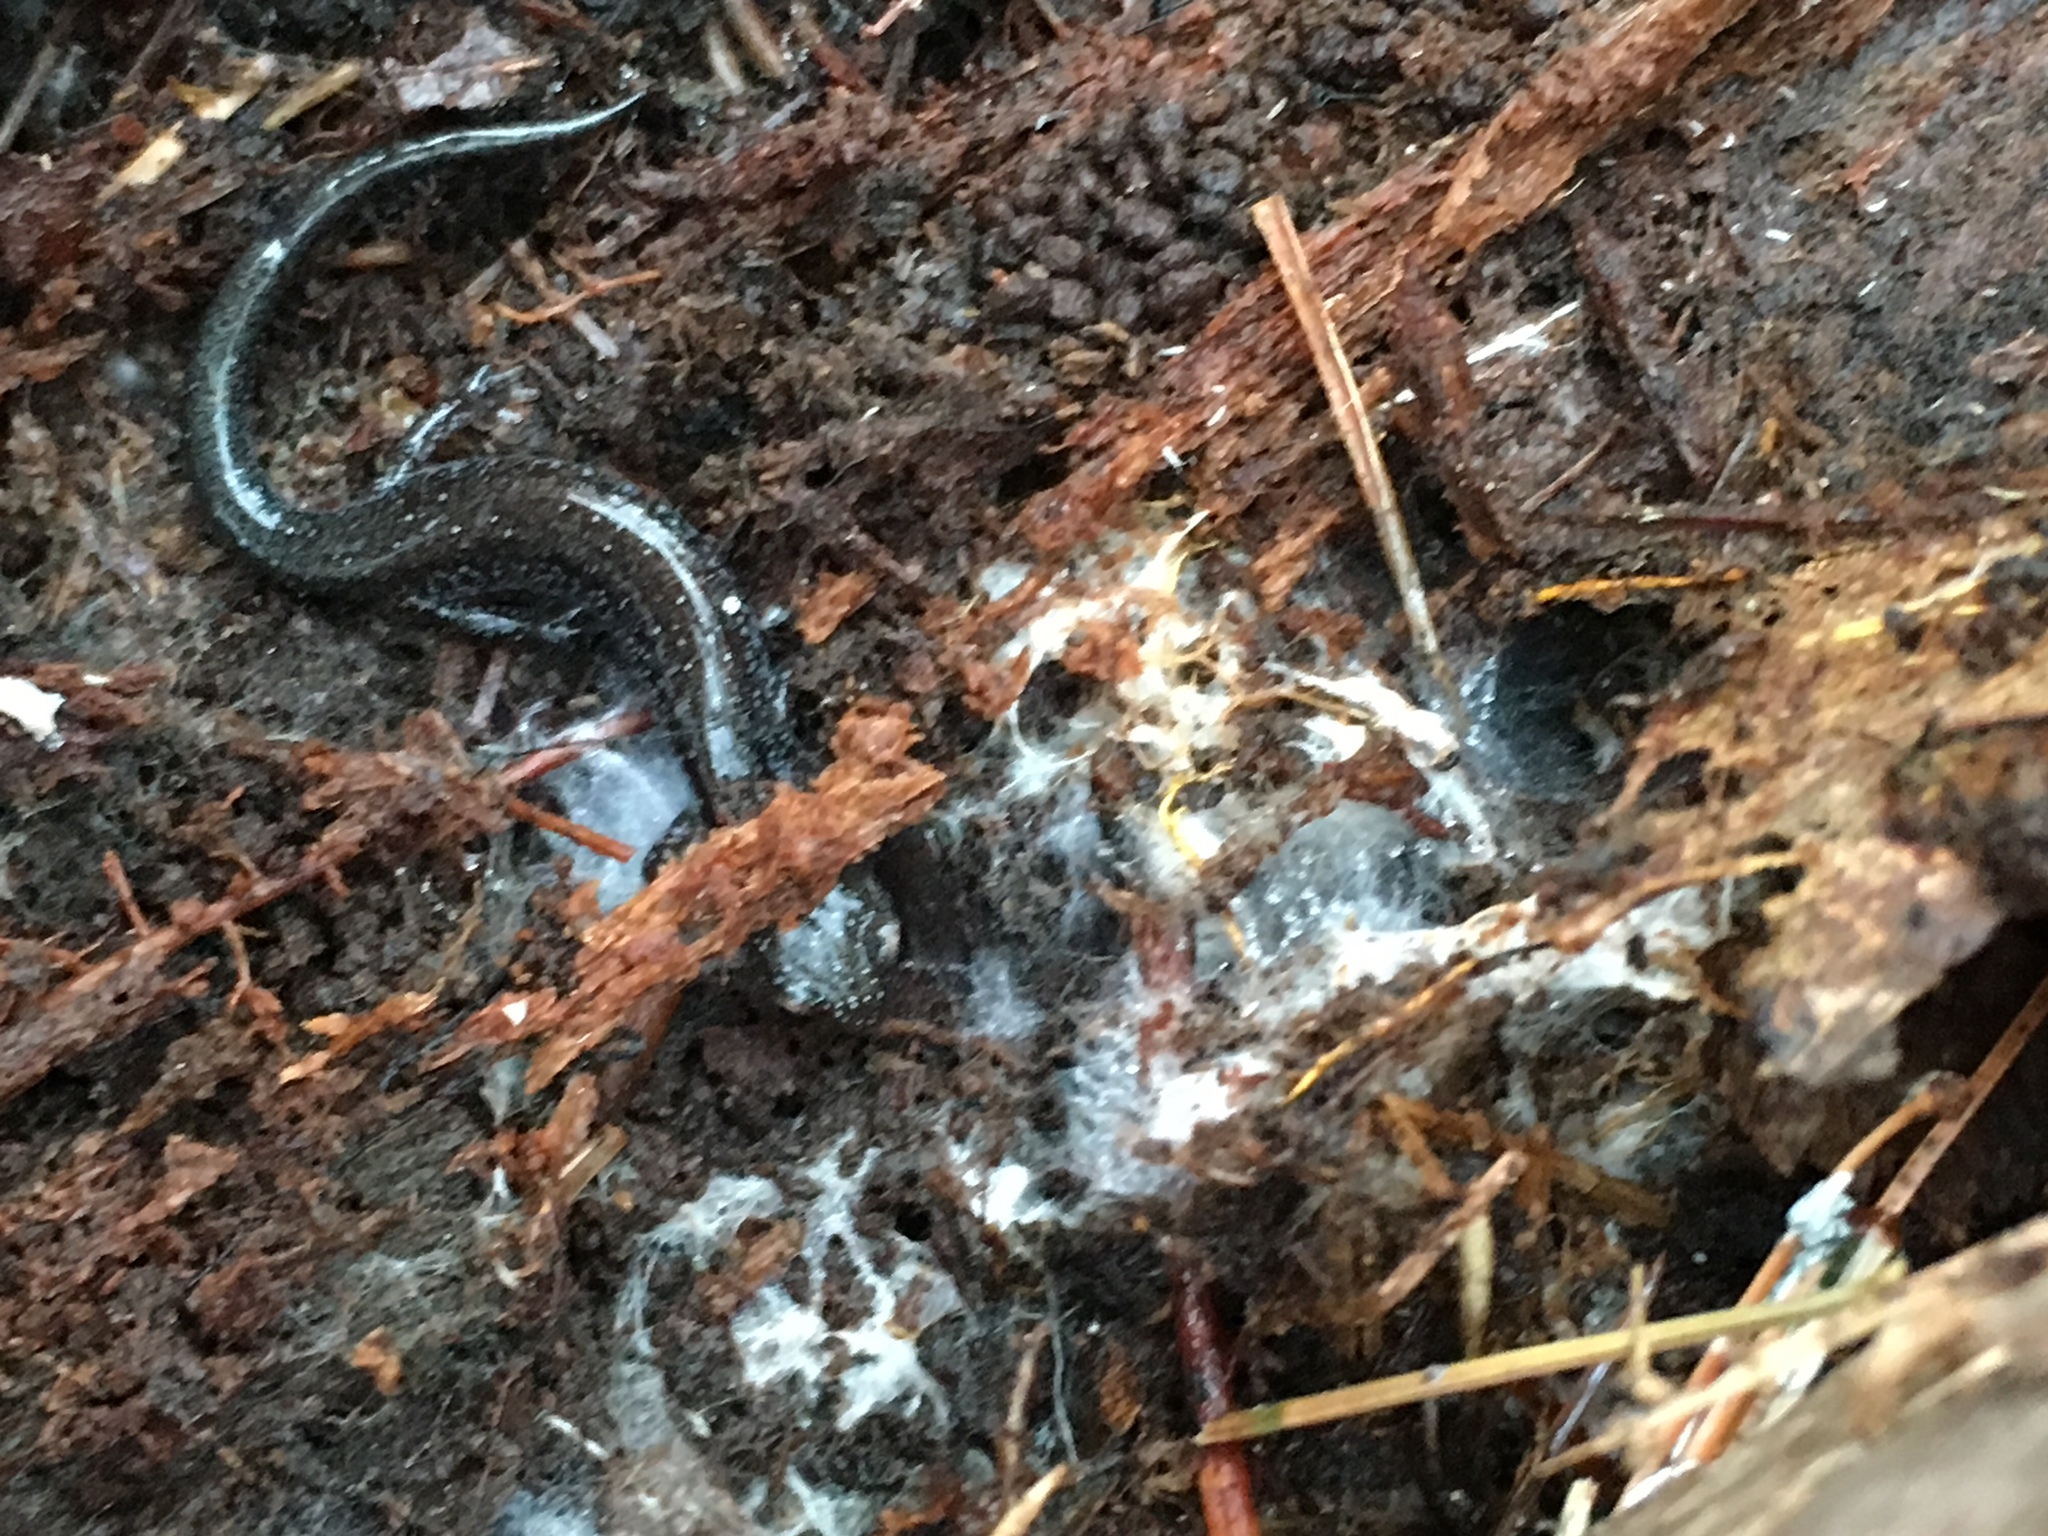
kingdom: Animalia
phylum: Chordata
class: Amphibia
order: Caudata
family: Plethodontidae
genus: Plethodon
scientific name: Plethodon cinereus
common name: Redback salamander
